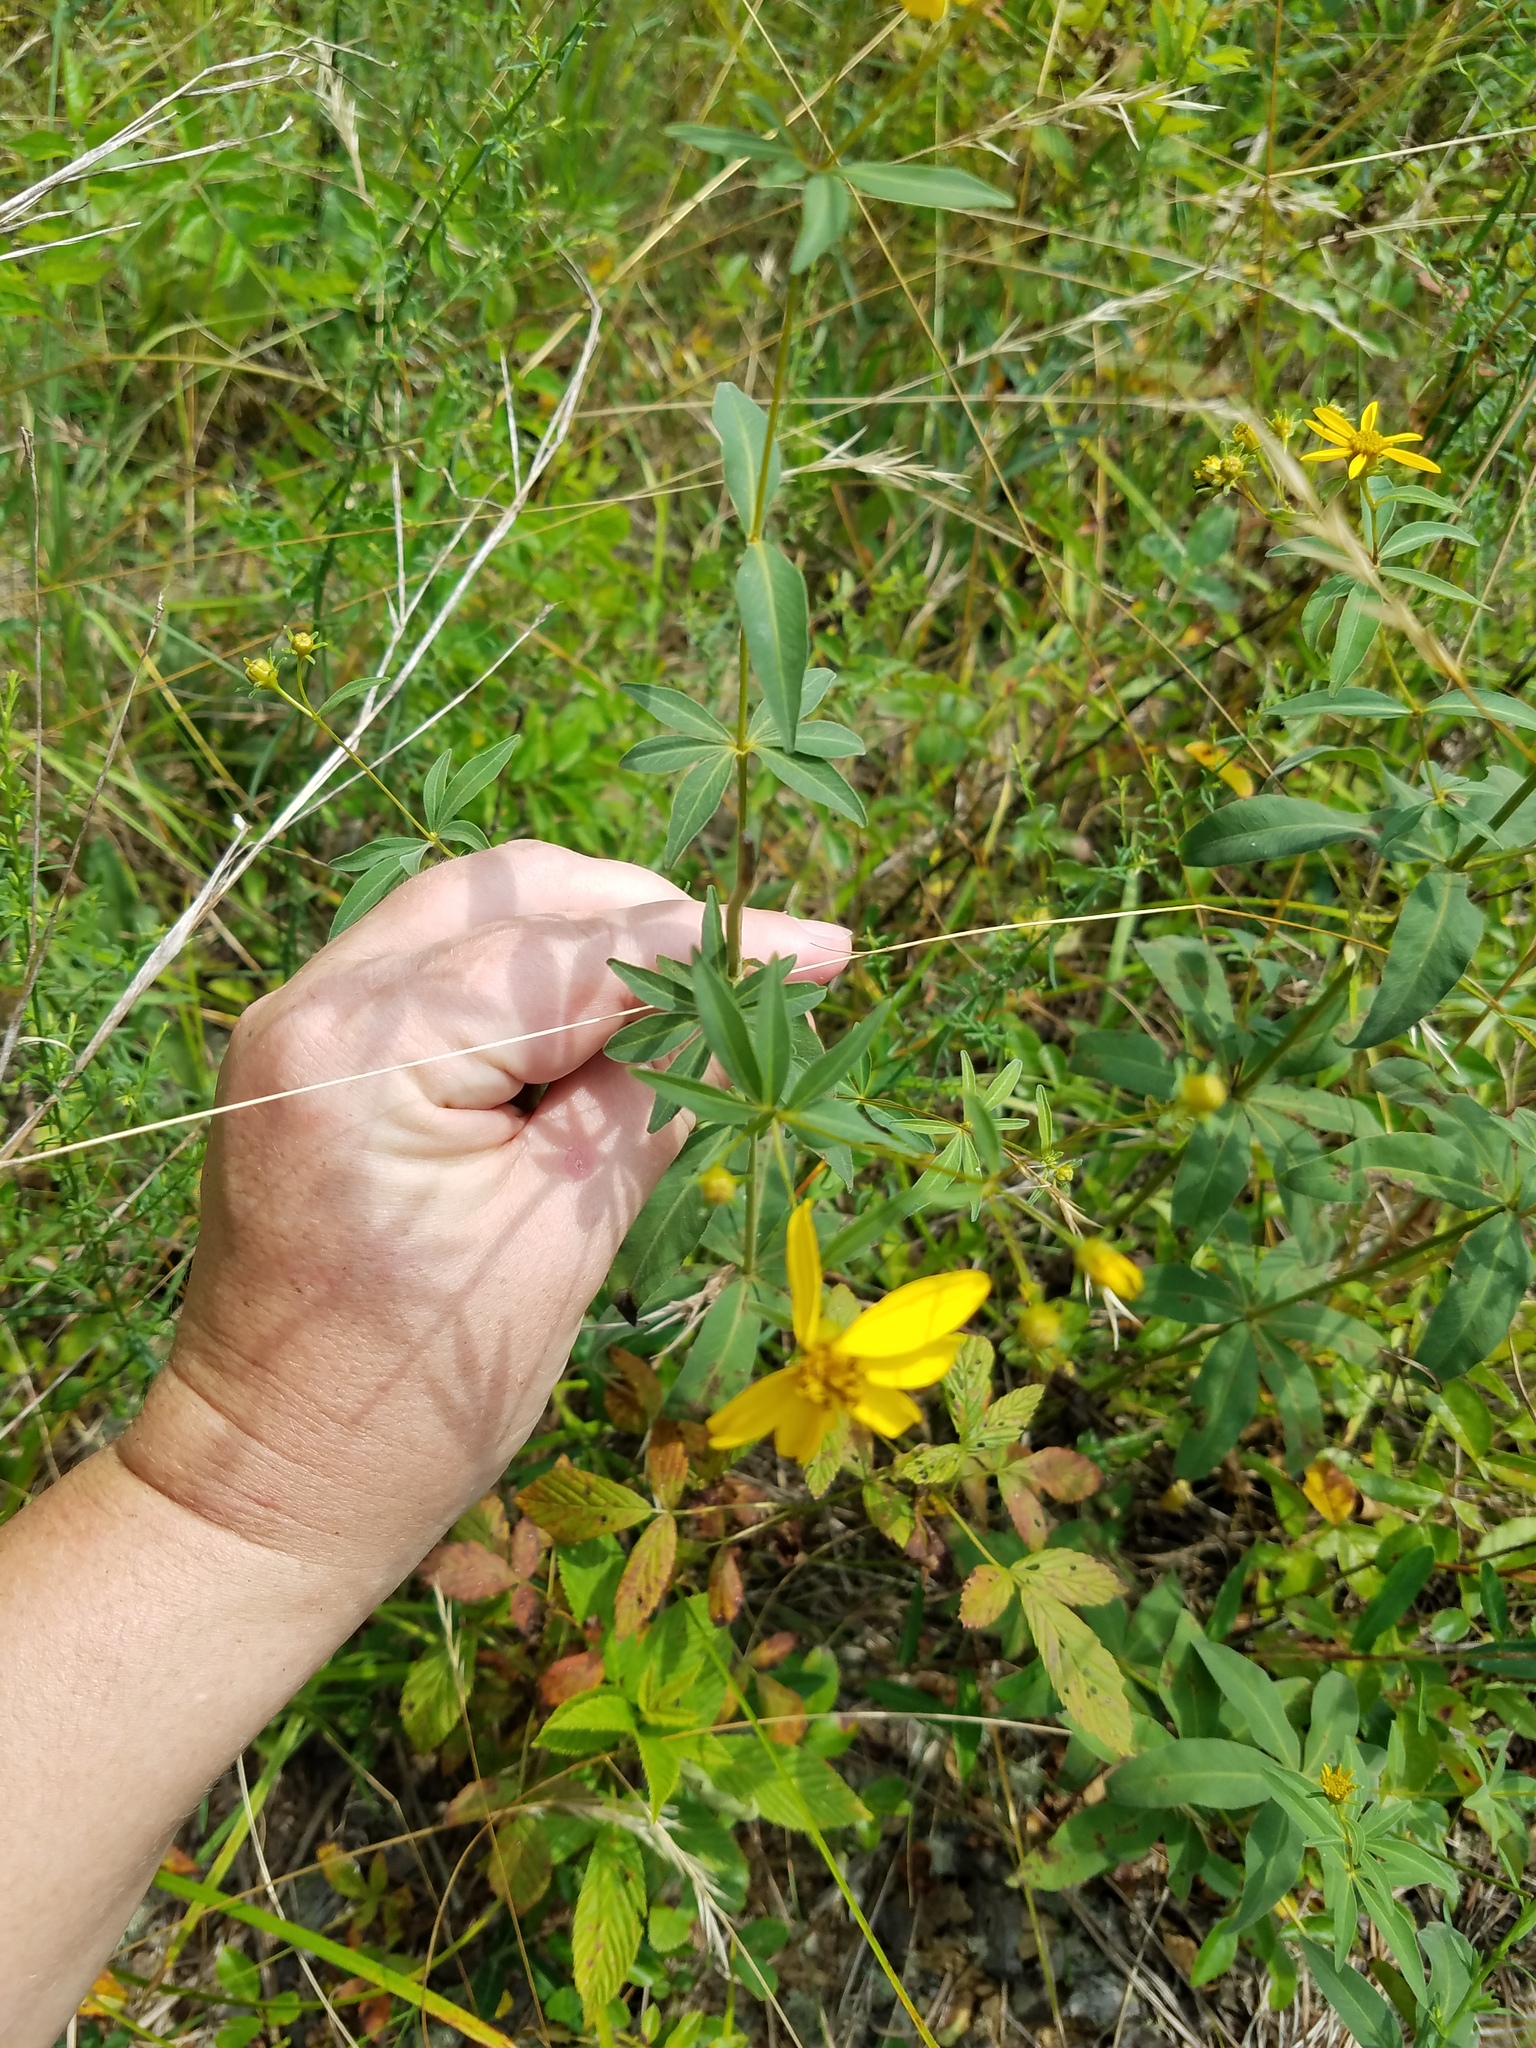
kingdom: Plantae
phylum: Tracheophyta
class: Magnoliopsida
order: Asterales
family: Asteraceae
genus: Coreopsis
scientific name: Coreopsis major
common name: Forest tickseed
